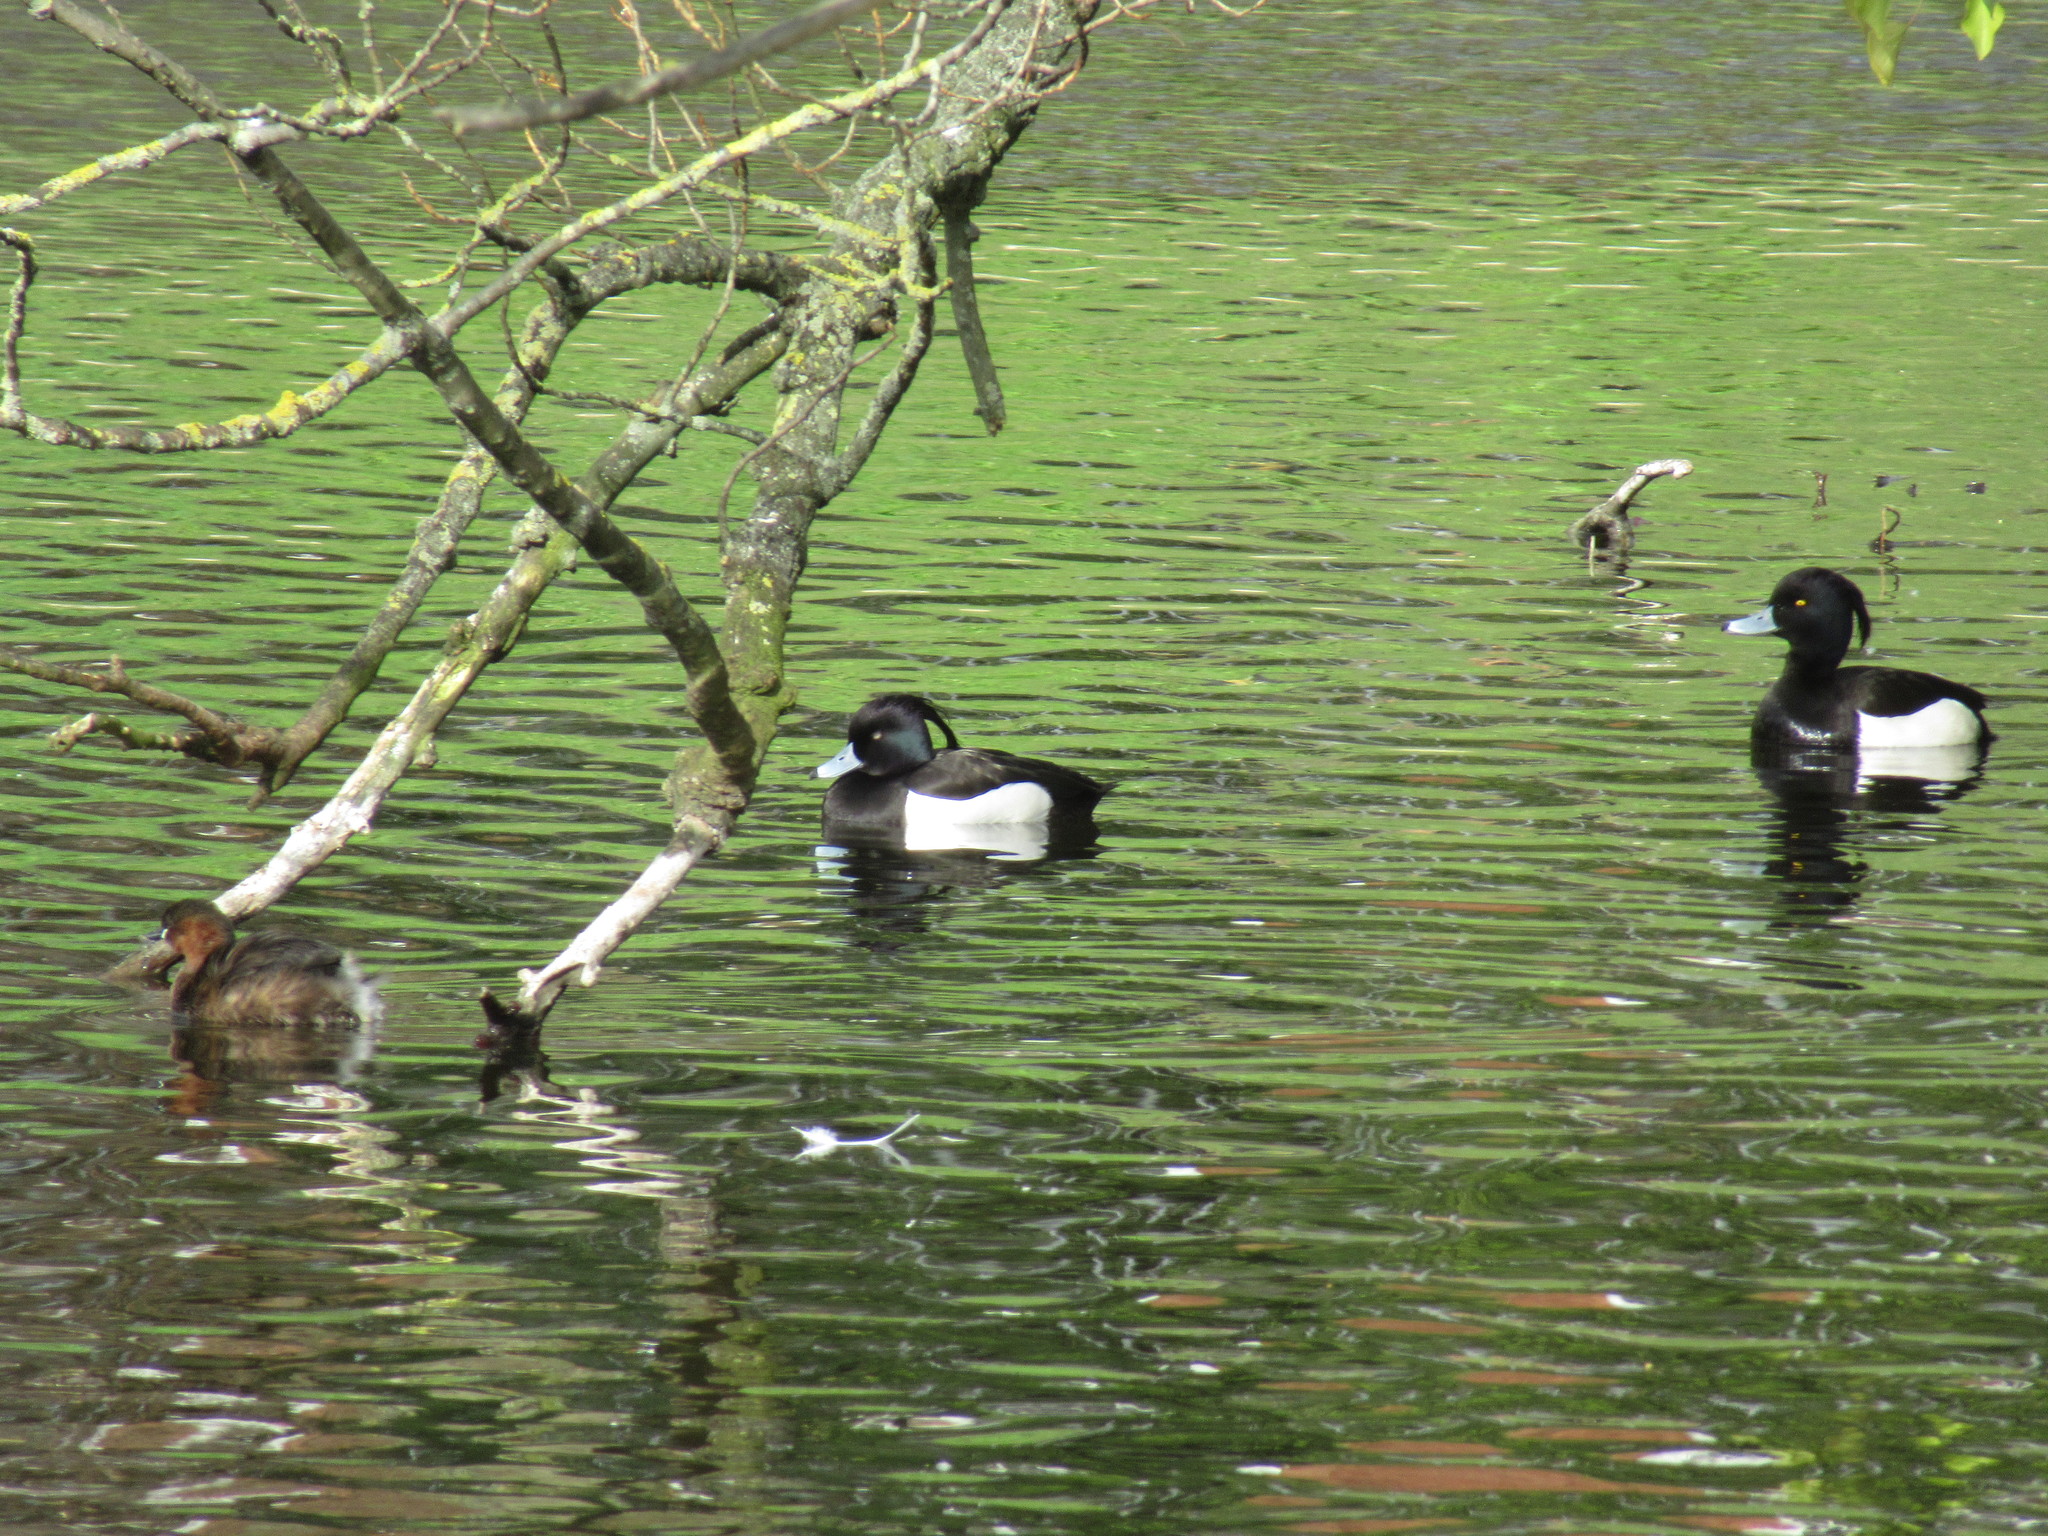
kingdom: Animalia
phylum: Chordata
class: Aves
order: Anseriformes
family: Anatidae
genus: Aythya
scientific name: Aythya fuligula
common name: Tufted duck
